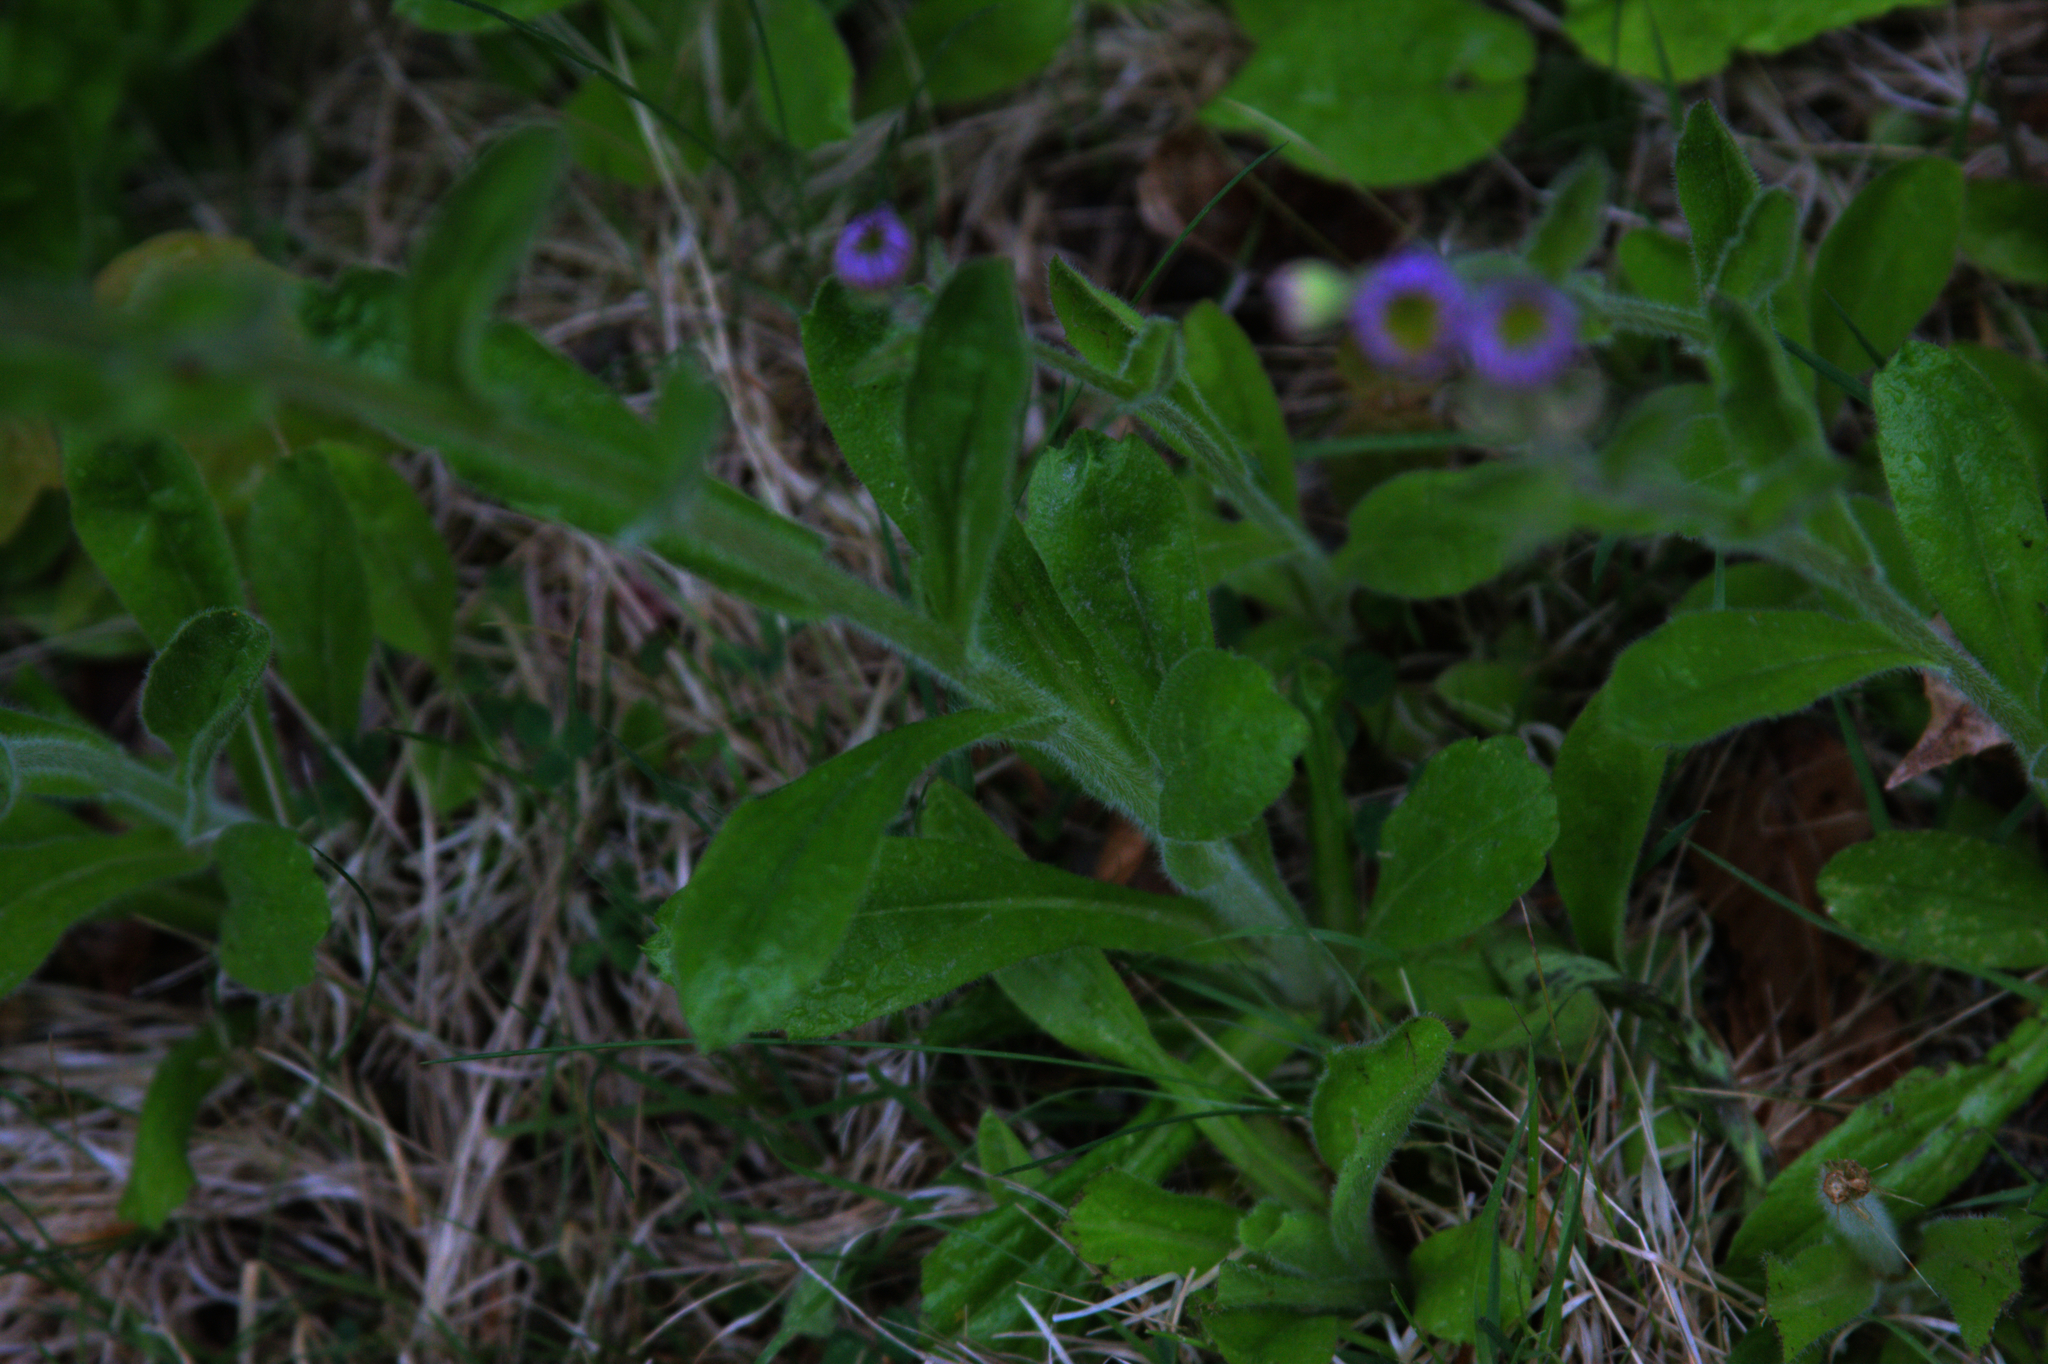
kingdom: Plantae
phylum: Tracheophyta
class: Magnoliopsida
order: Asterales
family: Asteraceae
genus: Erigeron
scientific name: Erigeron pulchellus
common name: Hairy fleabane
